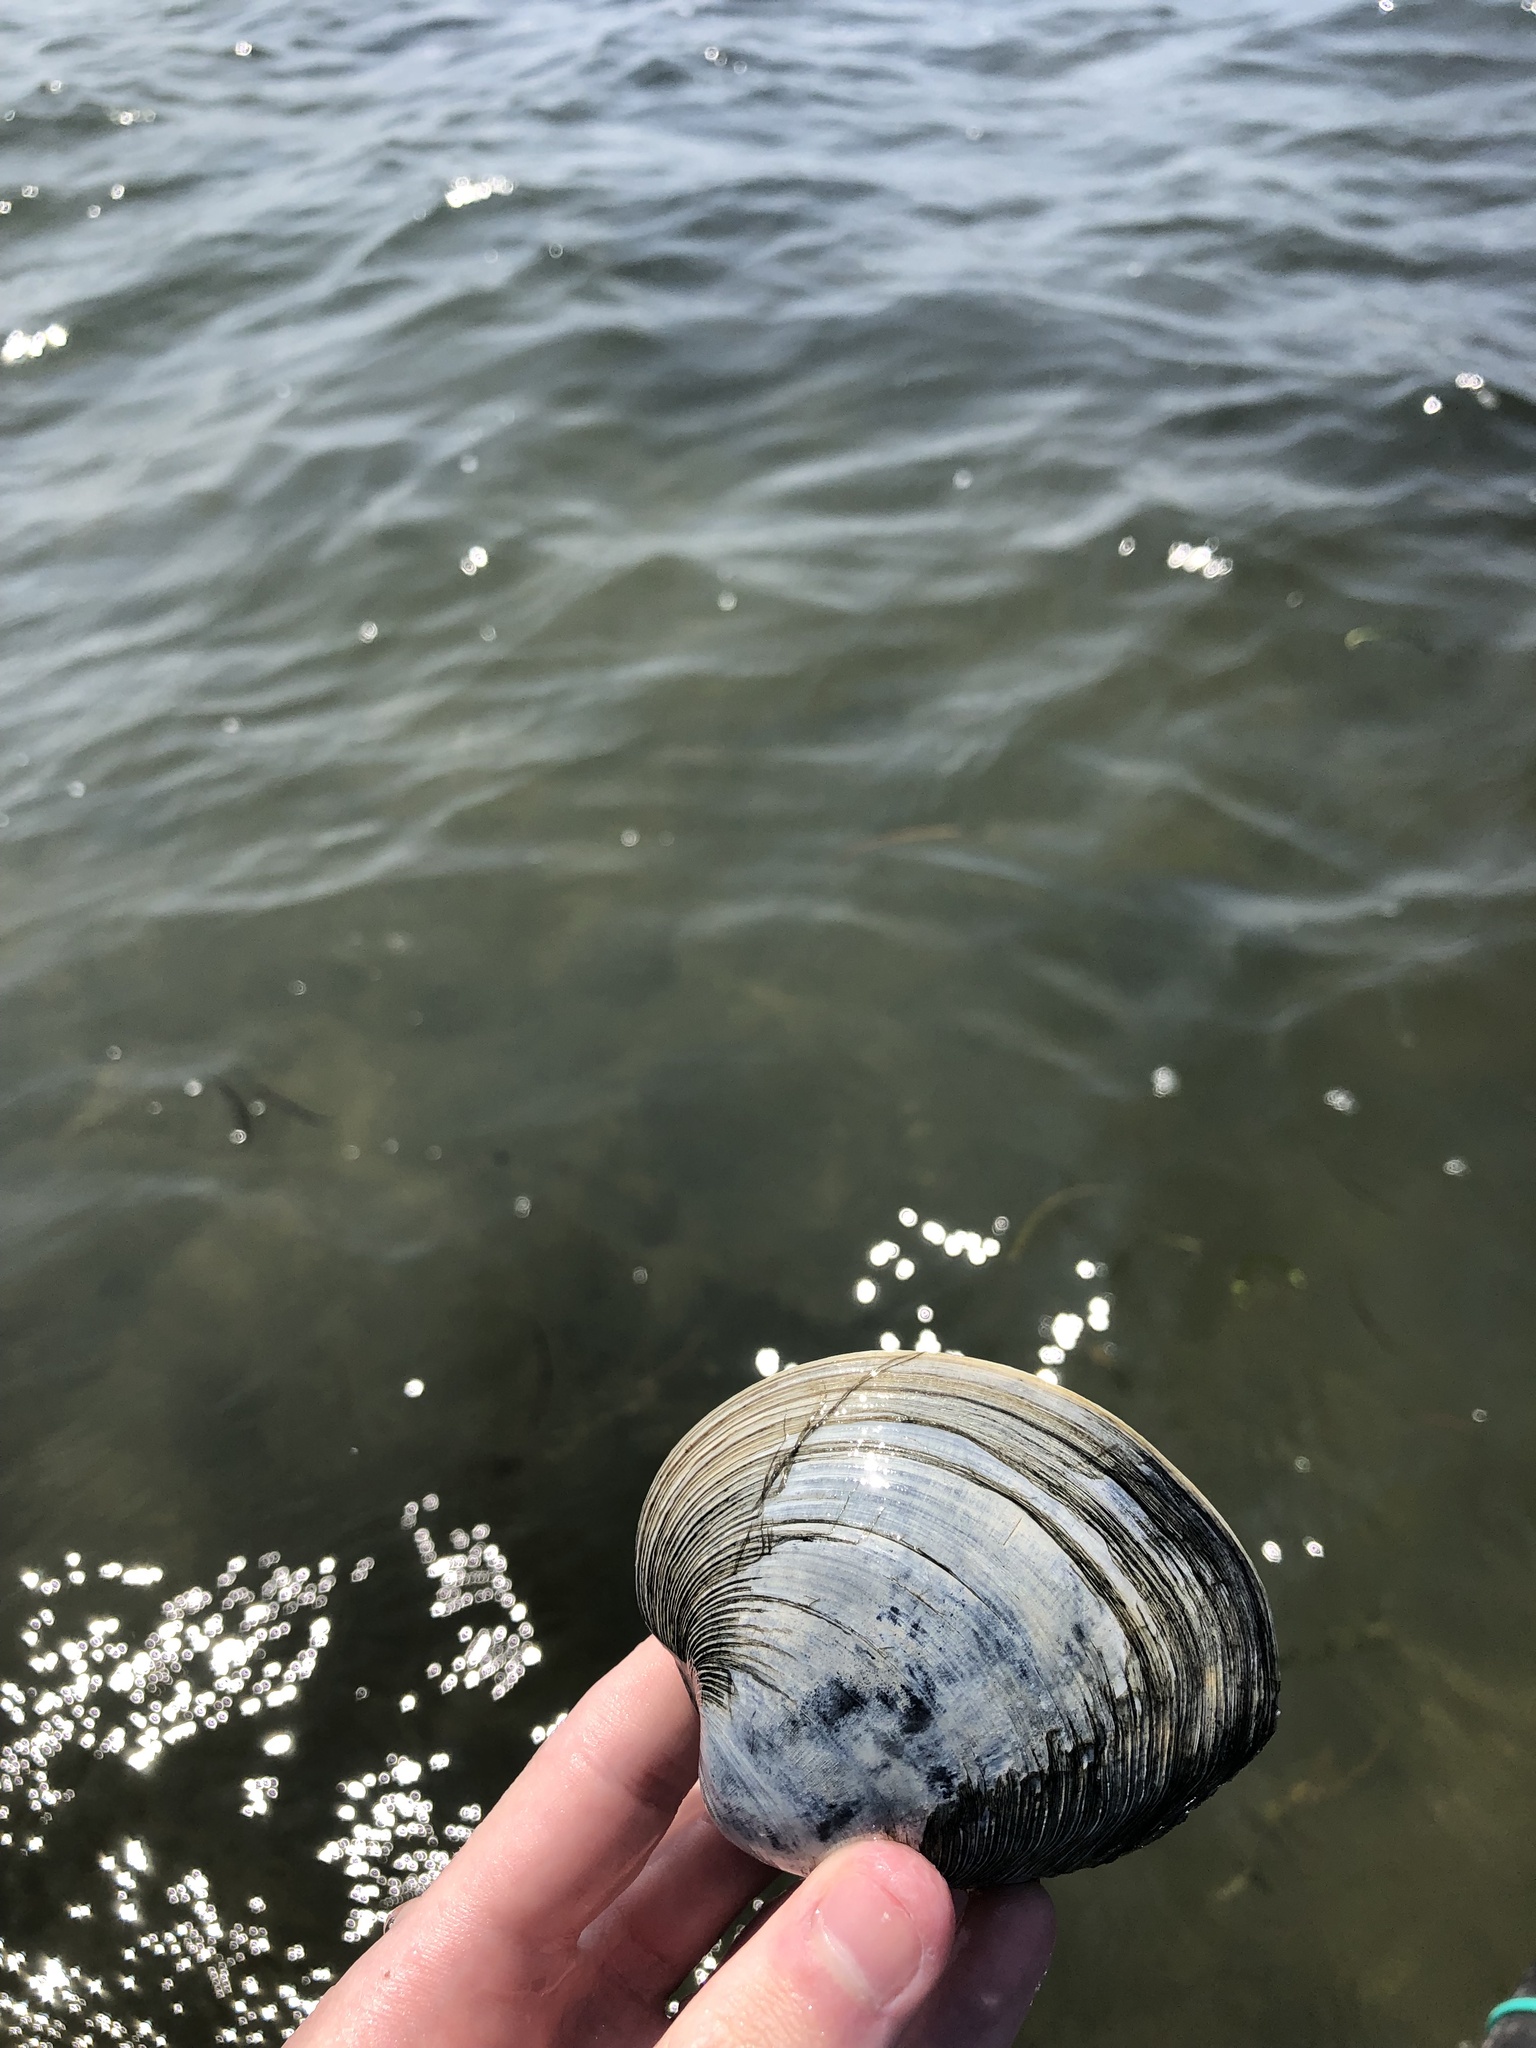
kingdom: Animalia
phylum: Mollusca
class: Bivalvia
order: Venerida
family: Veneridae
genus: Mercenaria
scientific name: Mercenaria mercenaria
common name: American hard-shelled clam
